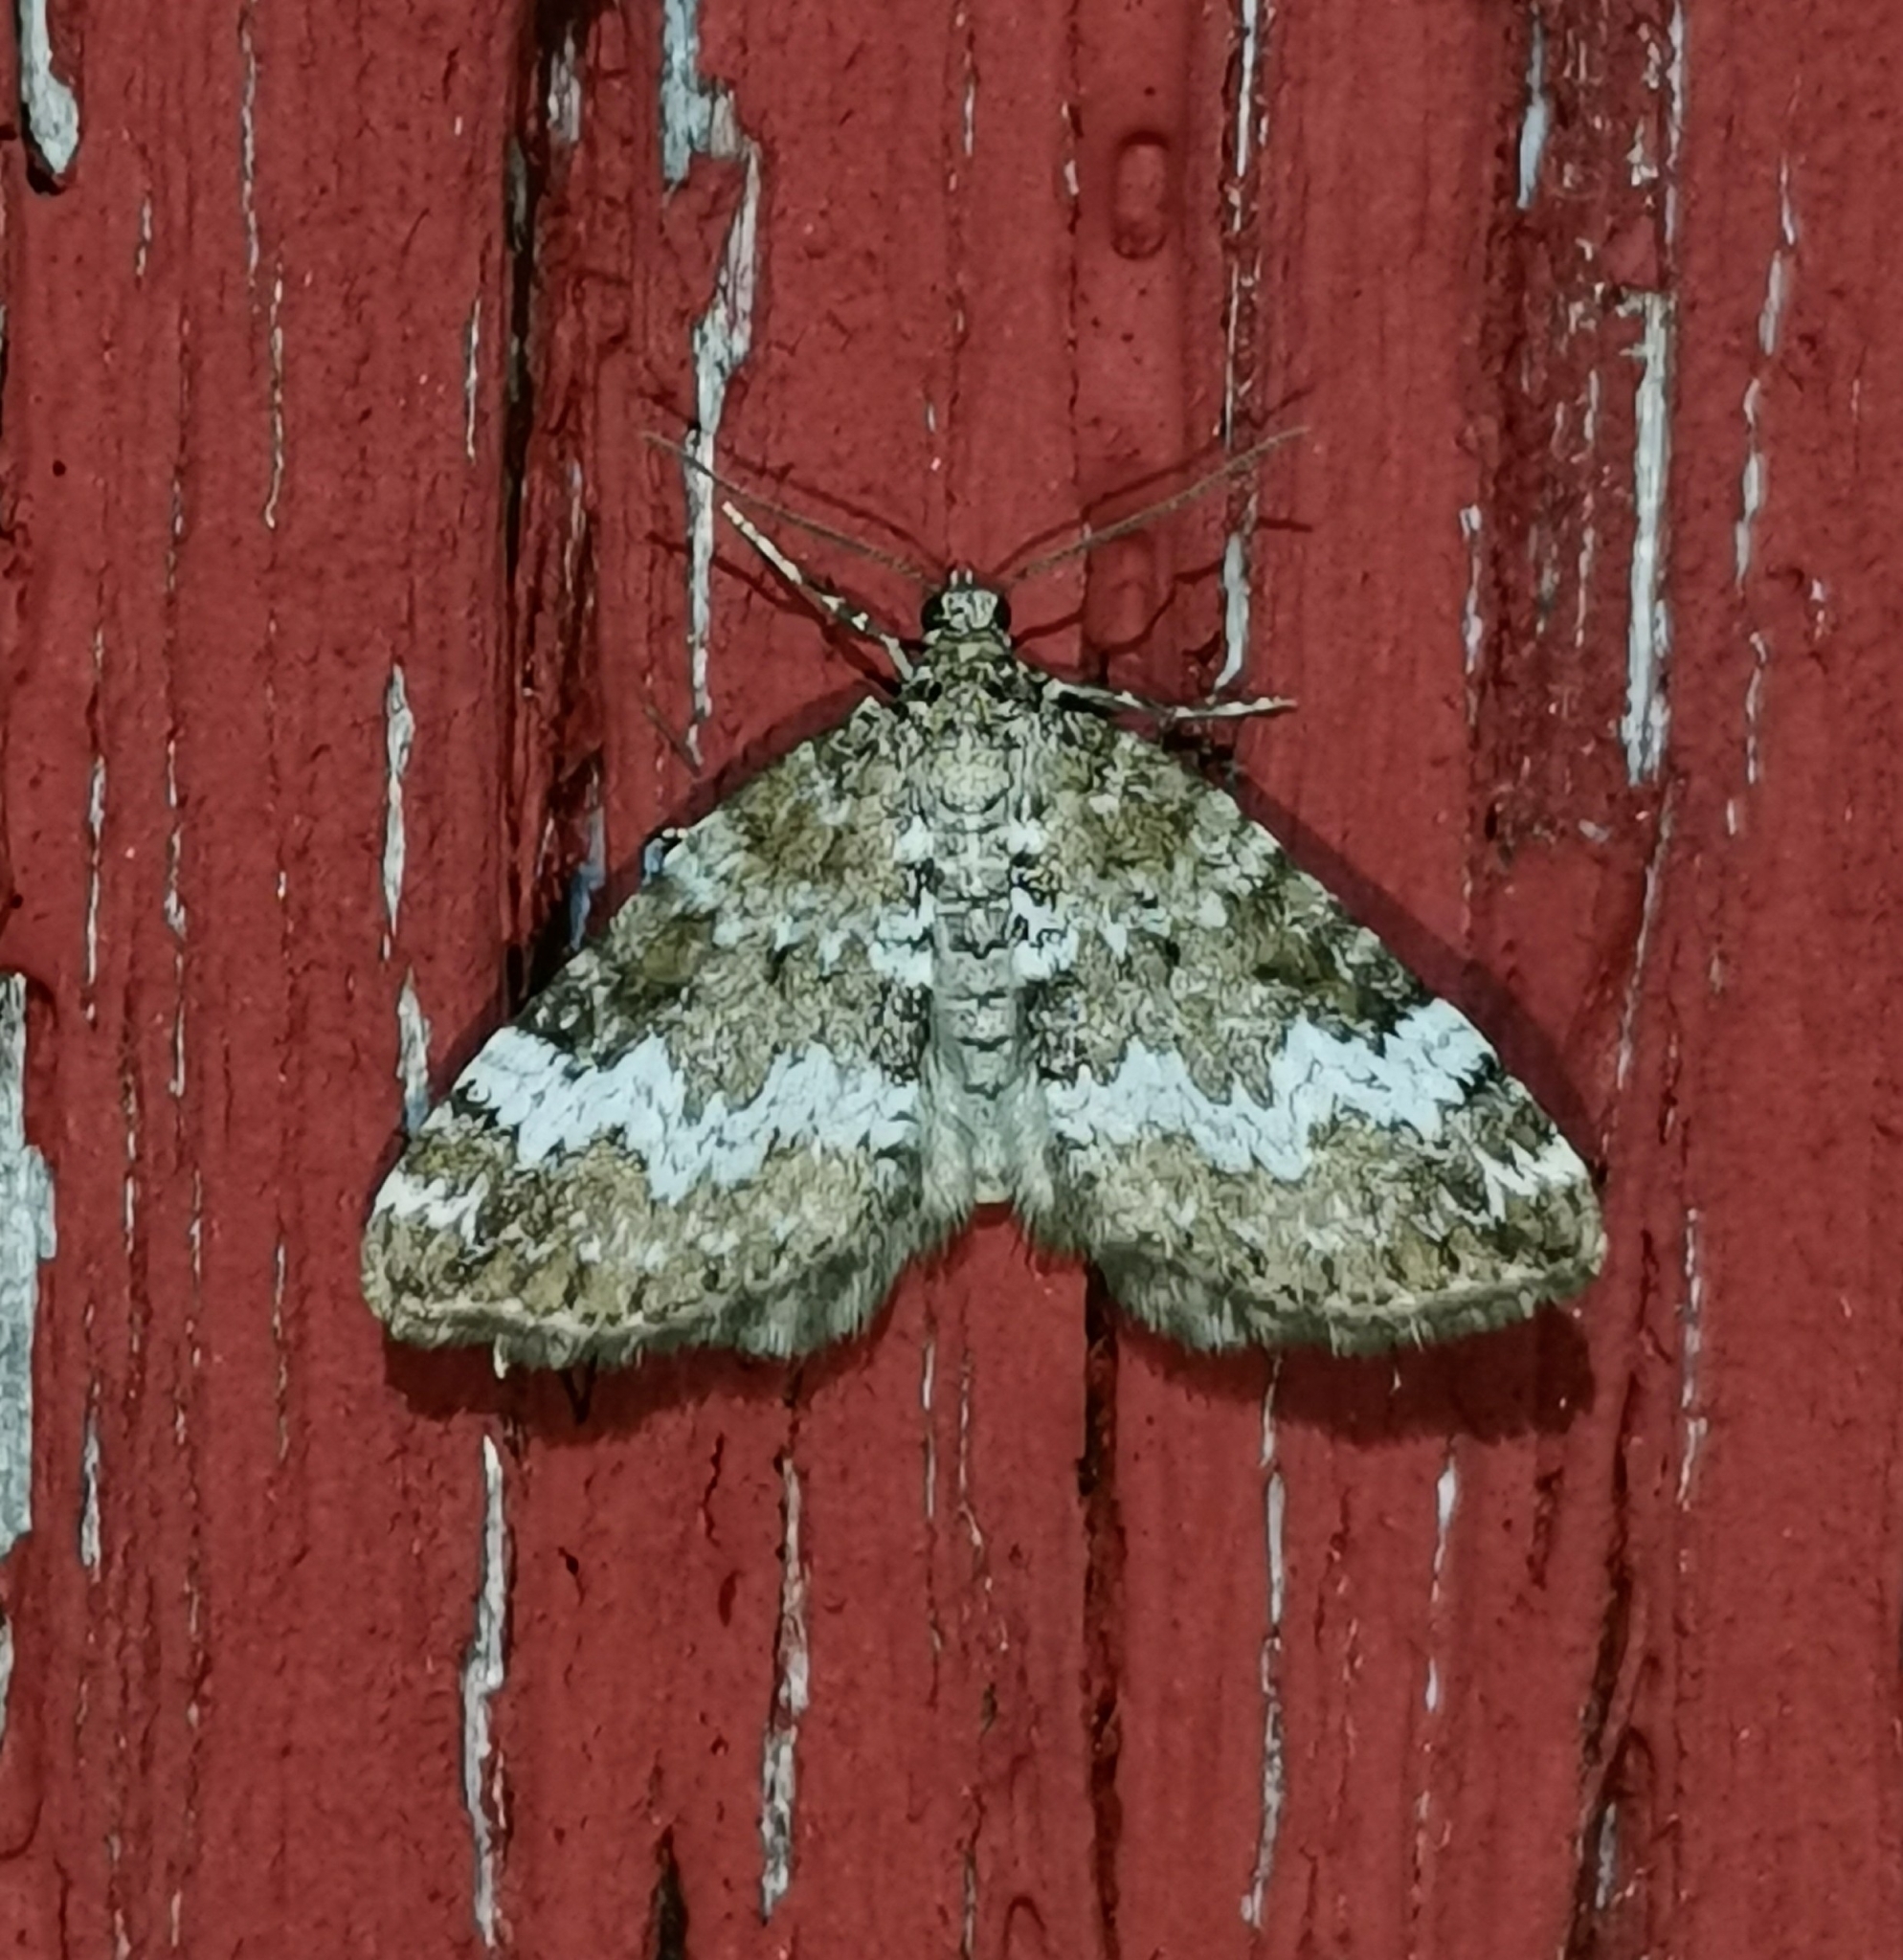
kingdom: Animalia
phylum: Arthropoda
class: Insecta
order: Lepidoptera
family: Geometridae
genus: Perizoma
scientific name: Perizoma alchemillata
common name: Small rivulet
